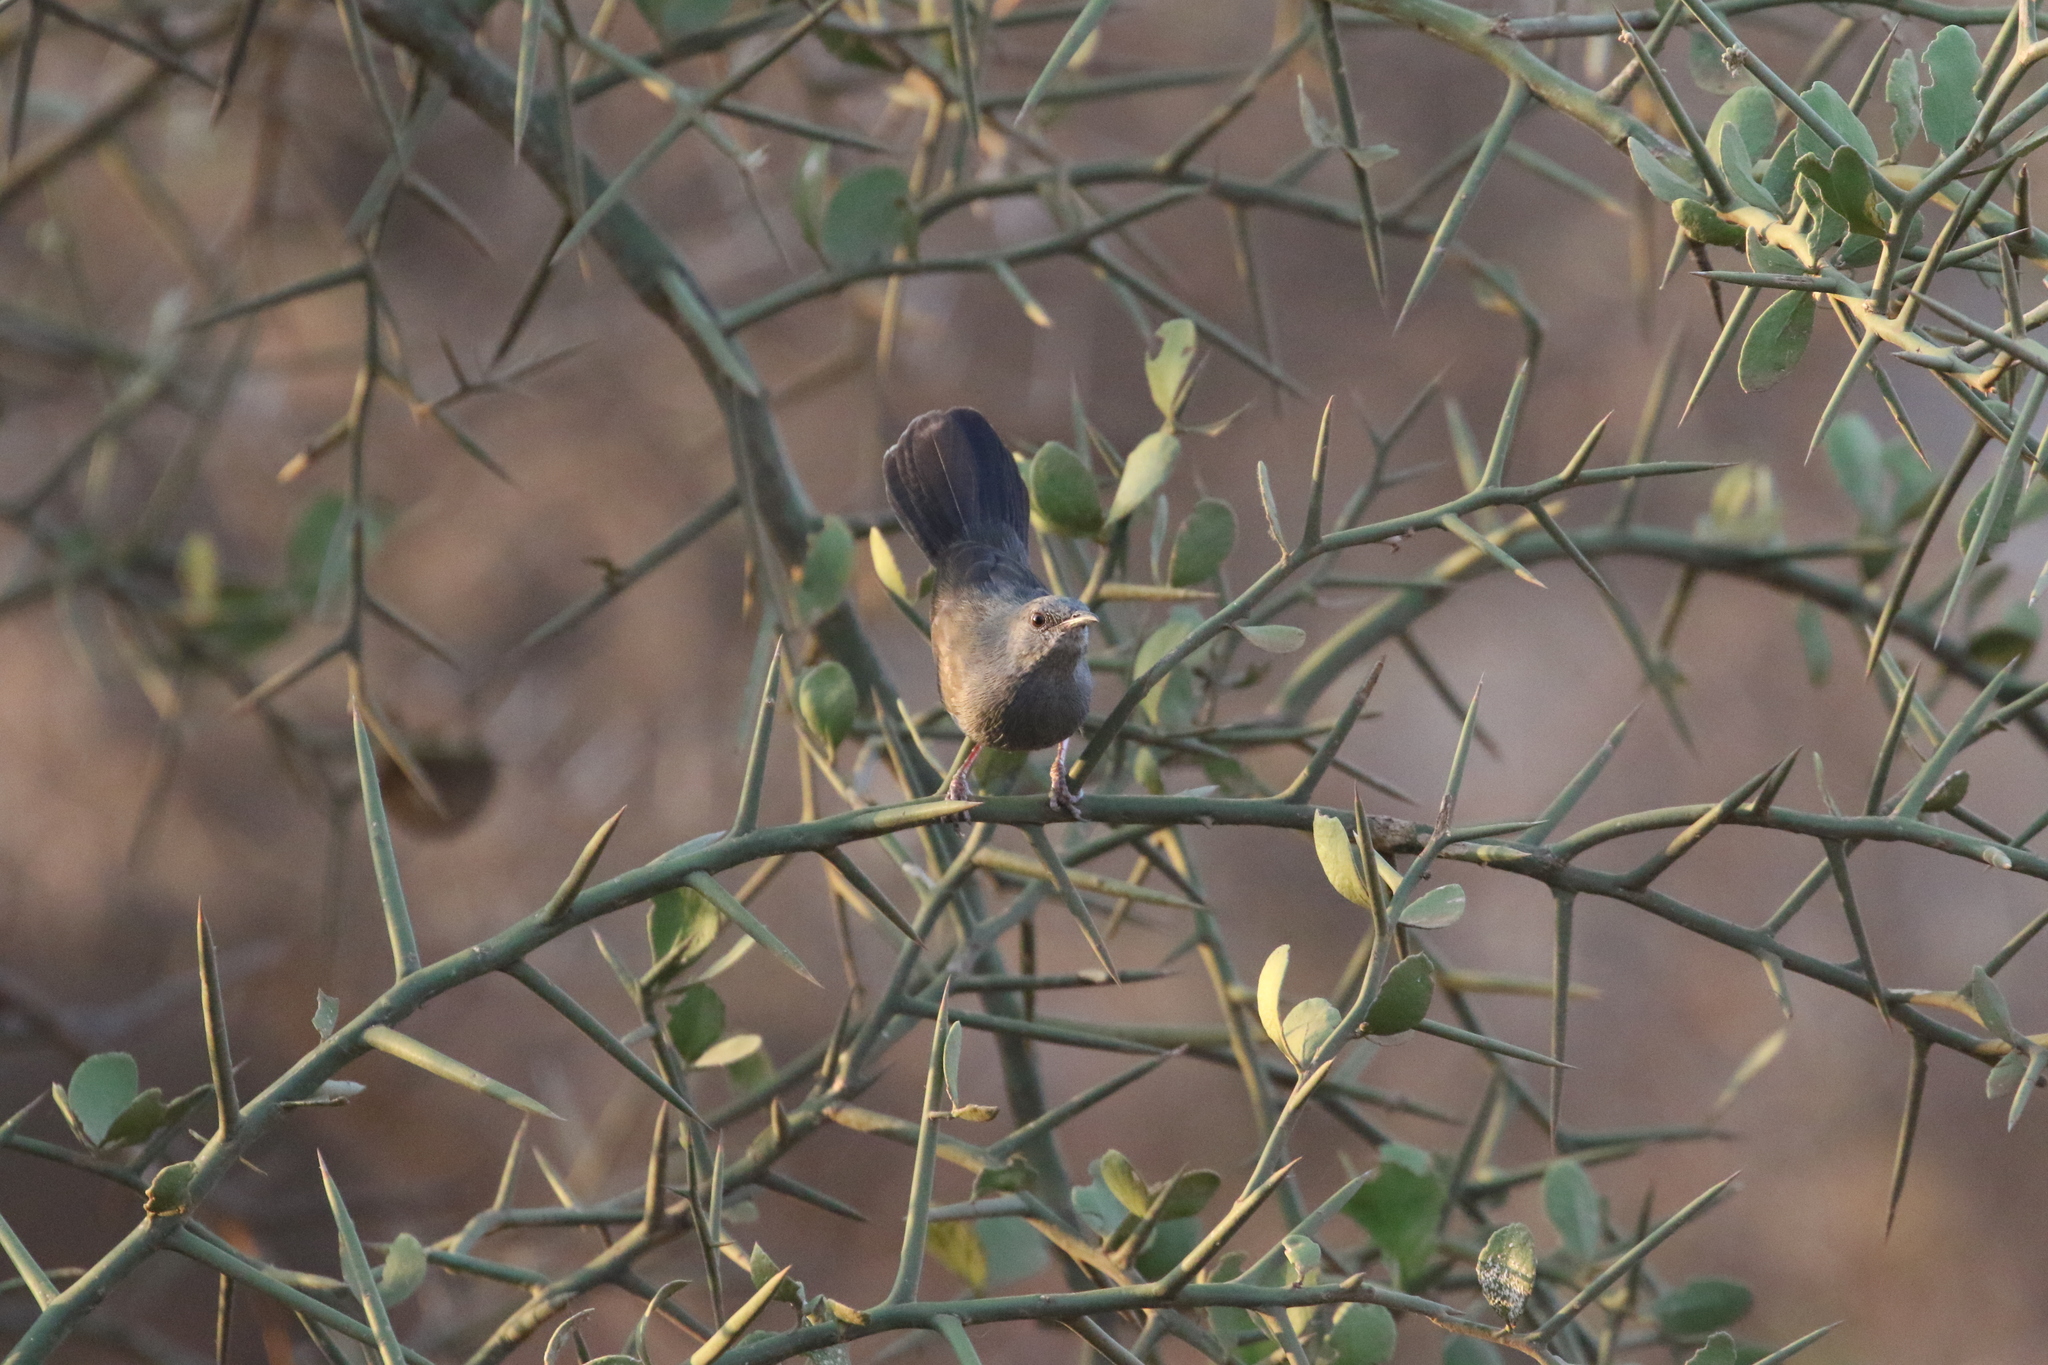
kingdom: Animalia
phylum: Chordata
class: Aves
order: Passeriformes
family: Cisticolidae
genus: Calamonastes
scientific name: Calamonastes simplex
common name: Grey wren-warbler
